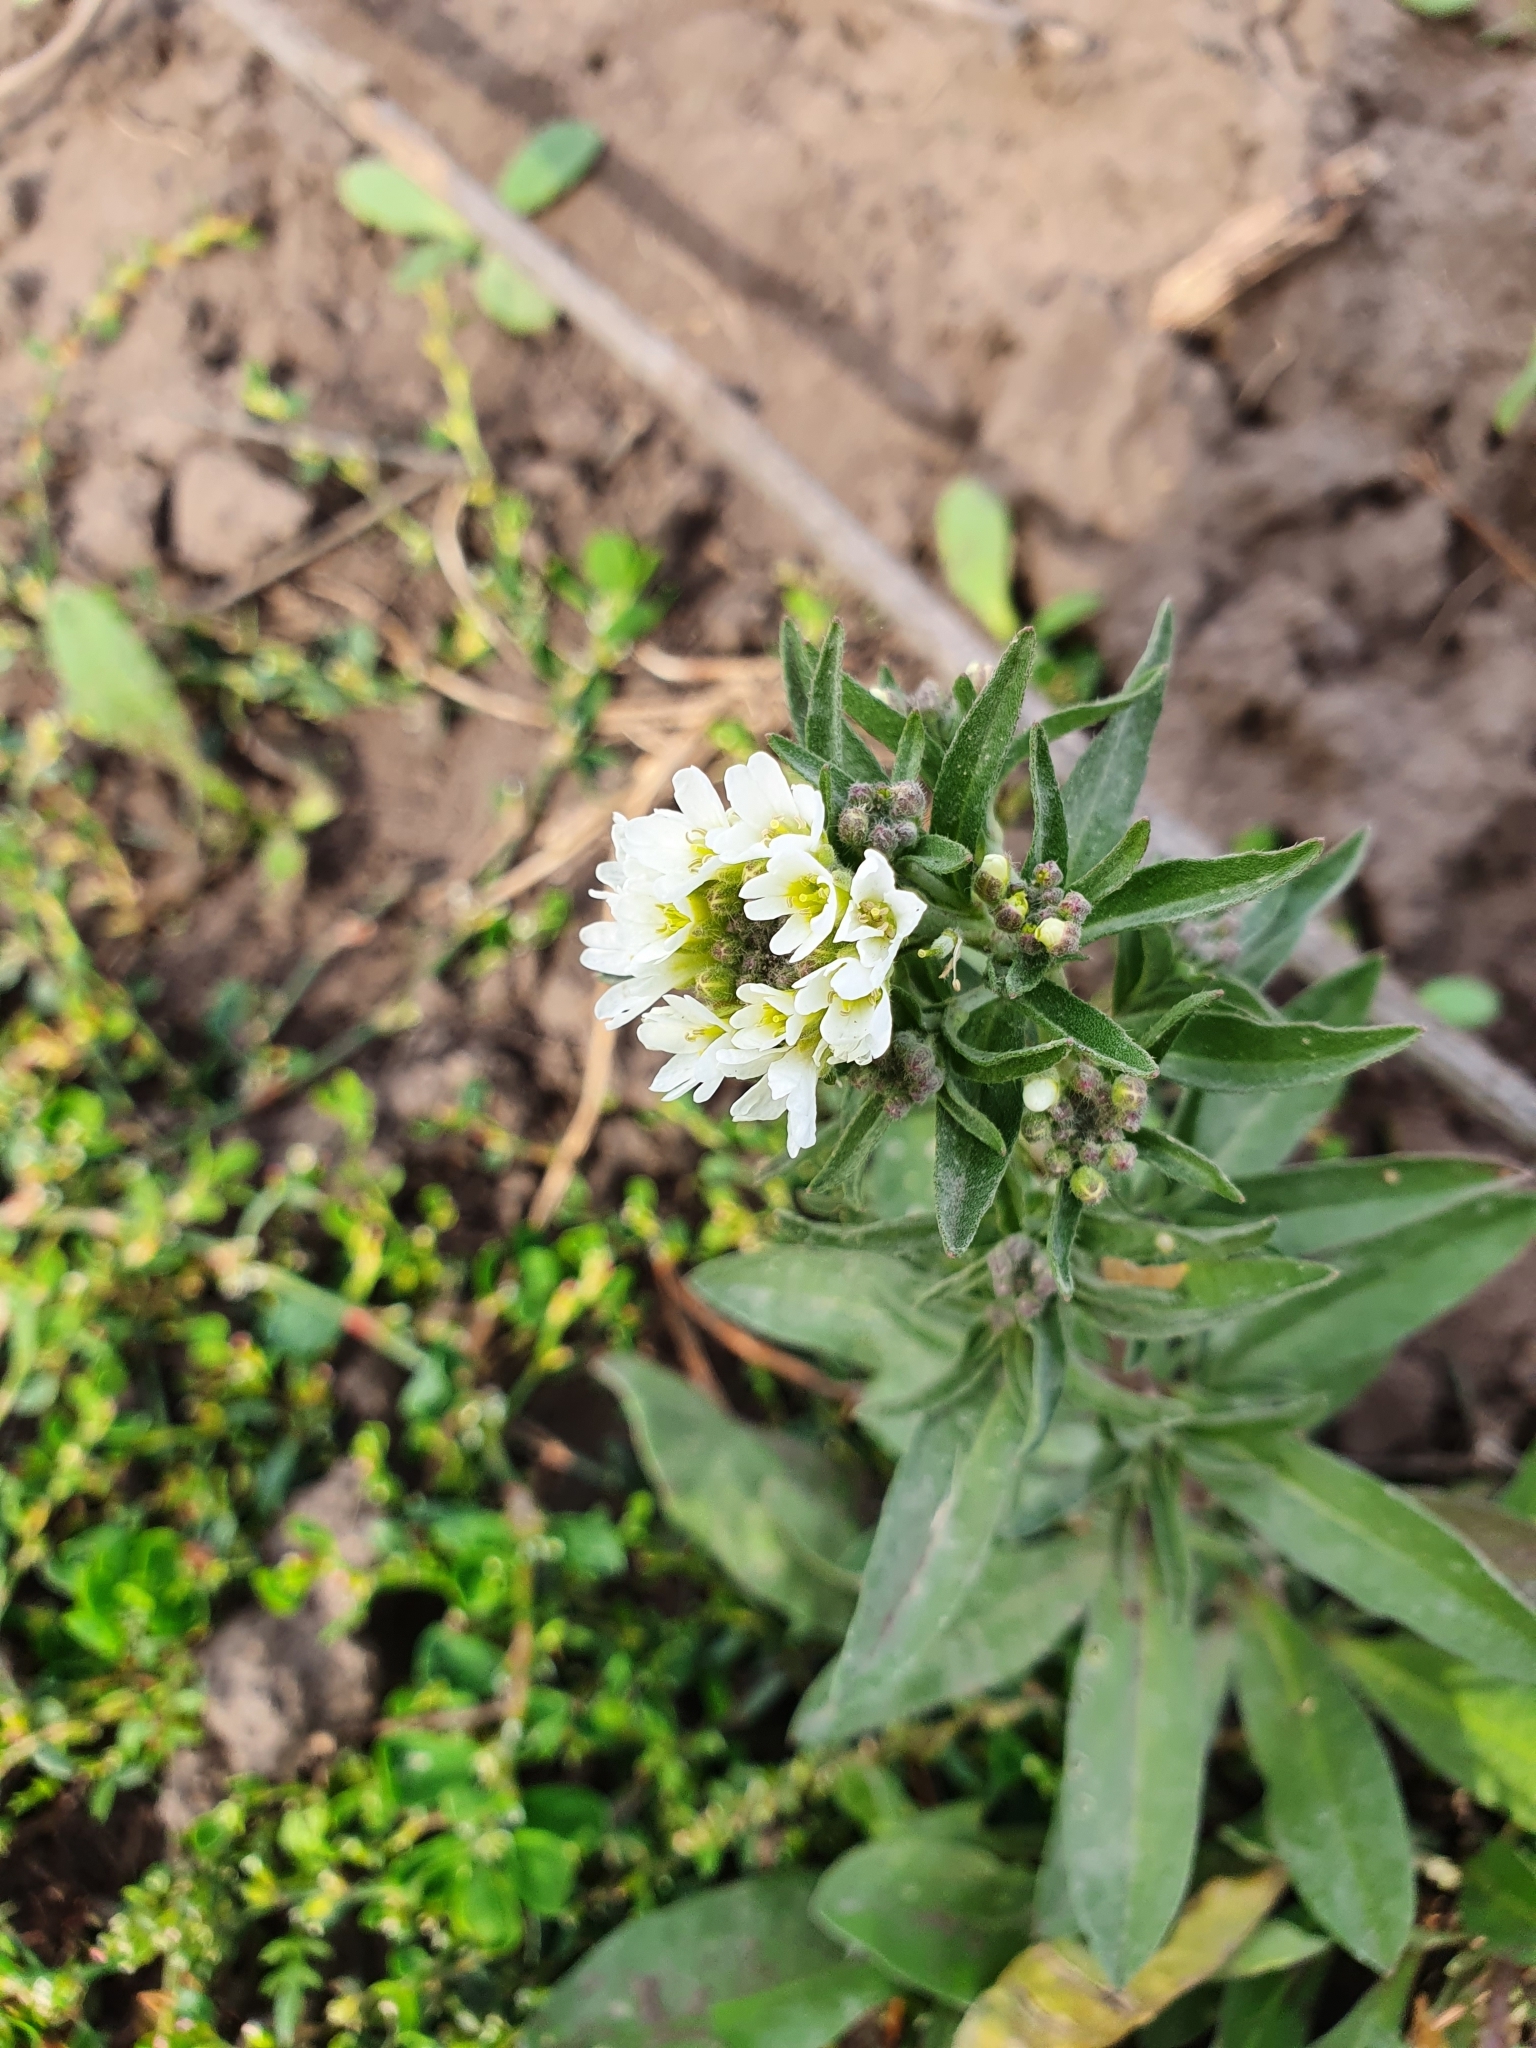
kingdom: Plantae
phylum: Tracheophyta
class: Magnoliopsida
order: Brassicales
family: Brassicaceae
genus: Berteroa
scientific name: Berteroa incana
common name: Hoary alison
